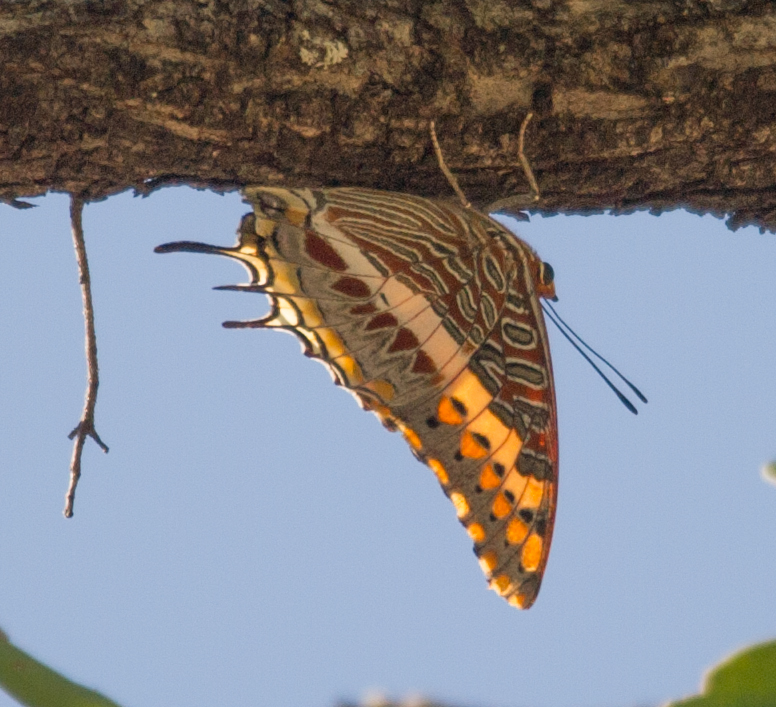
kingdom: Animalia
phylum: Arthropoda
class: Insecta
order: Lepidoptera
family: Nymphalidae
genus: Charaxes
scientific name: Charaxes jasius
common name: Two tailed pasha
